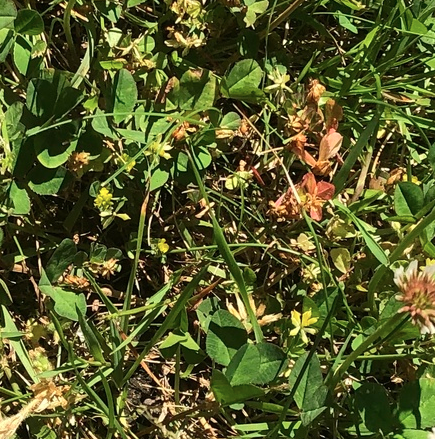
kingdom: Plantae
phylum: Tracheophyta
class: Magnoliopsida
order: Fabales
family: Fabaceae
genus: Trifolium
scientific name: Trifolium dubium
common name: Suckling clover
